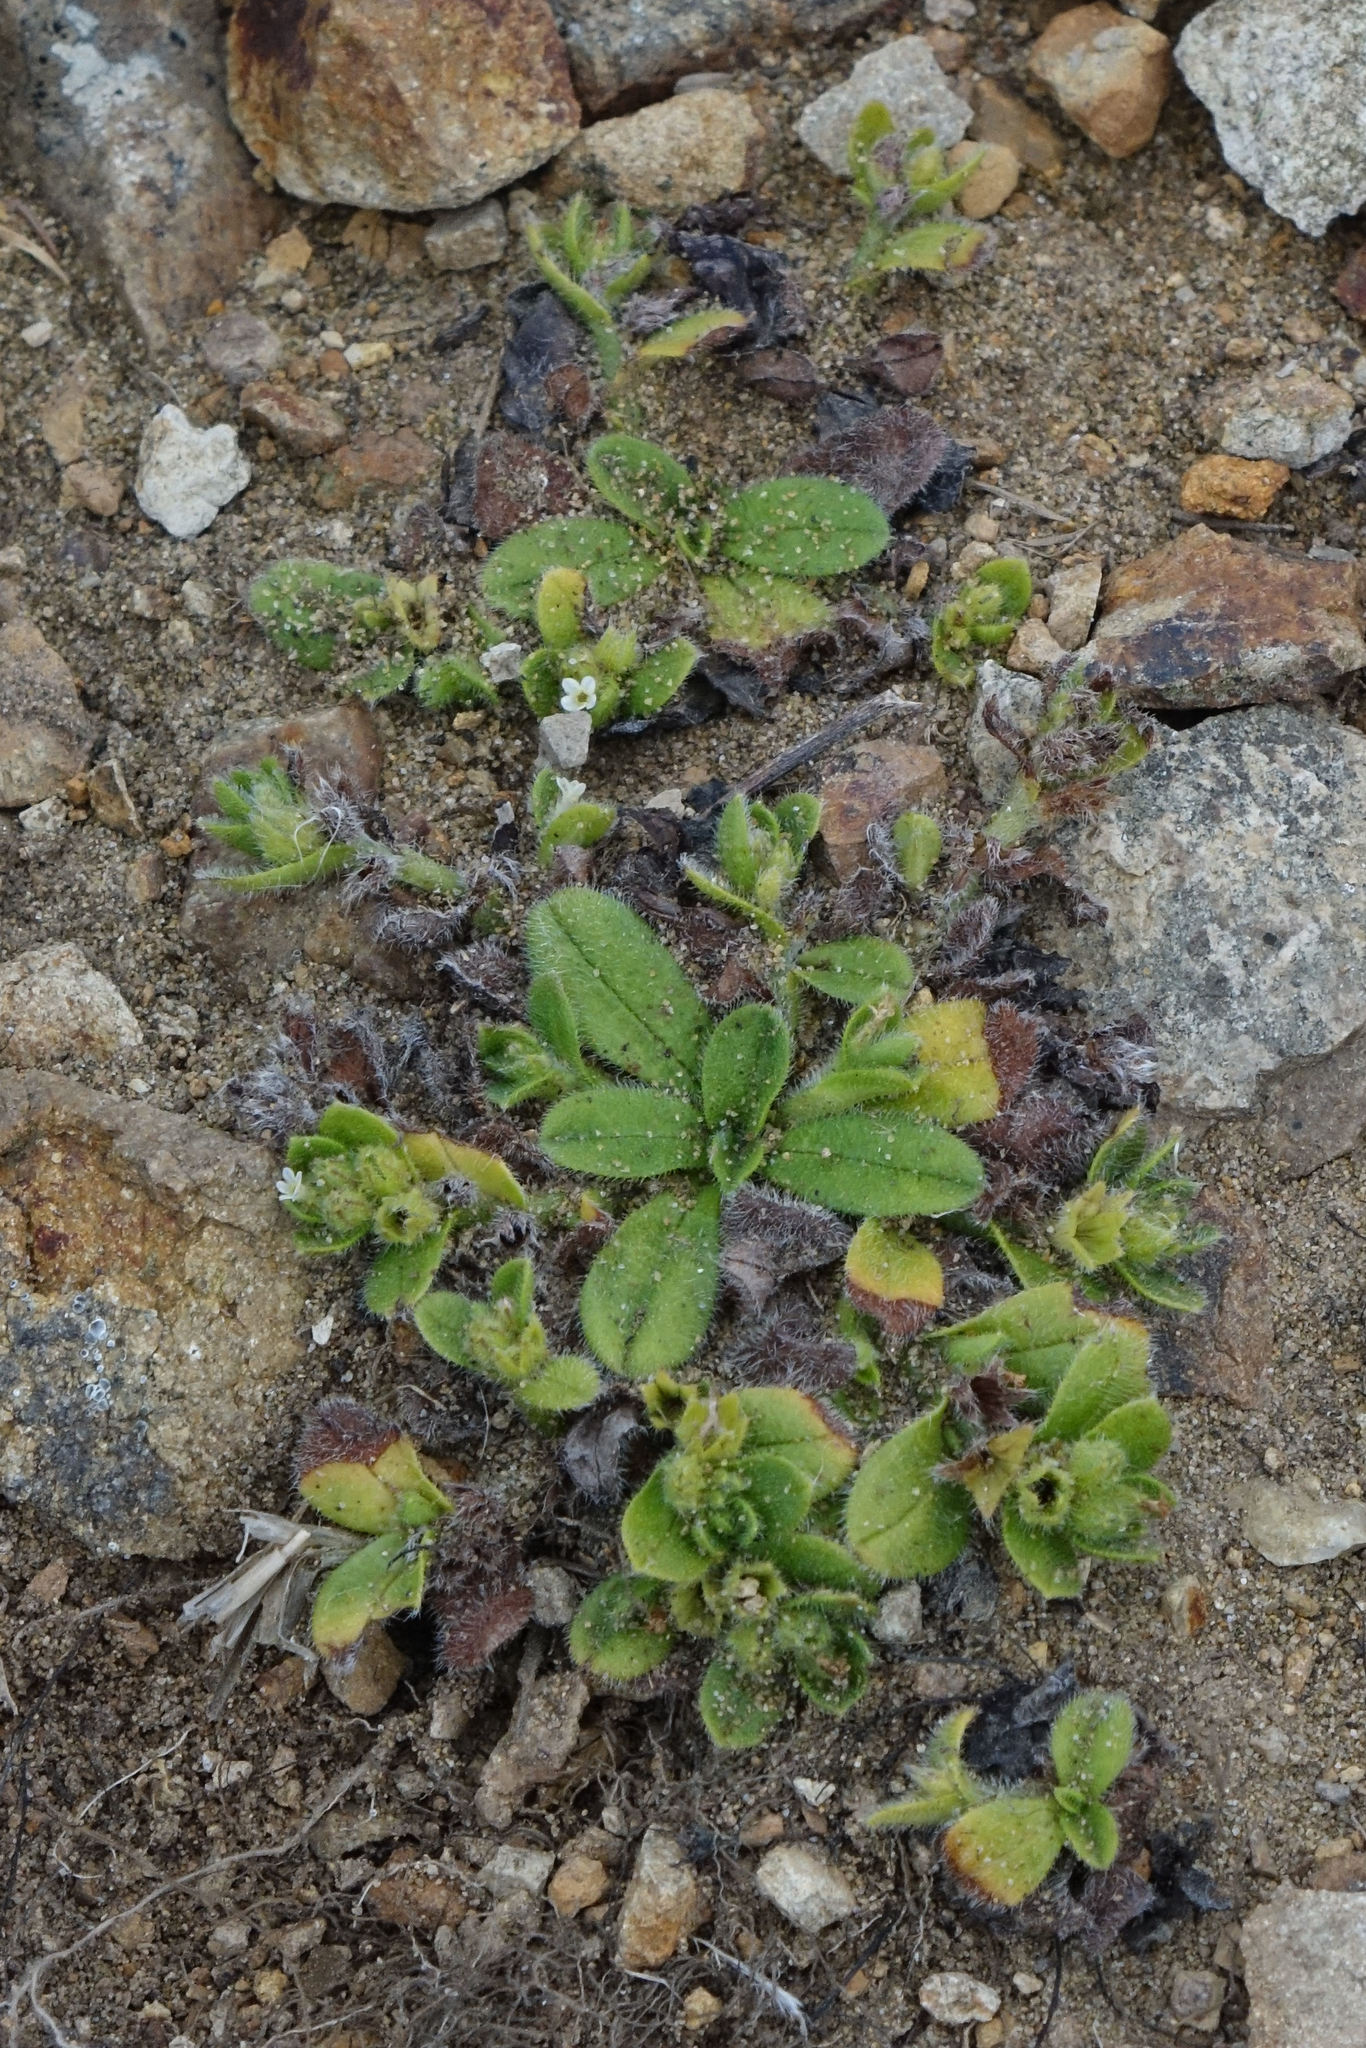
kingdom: Plantae
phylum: Tracheophyta
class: Magnoliopsida
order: Boraginales
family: Boraginaceae
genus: Myosotis
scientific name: Myosotis antarctica
